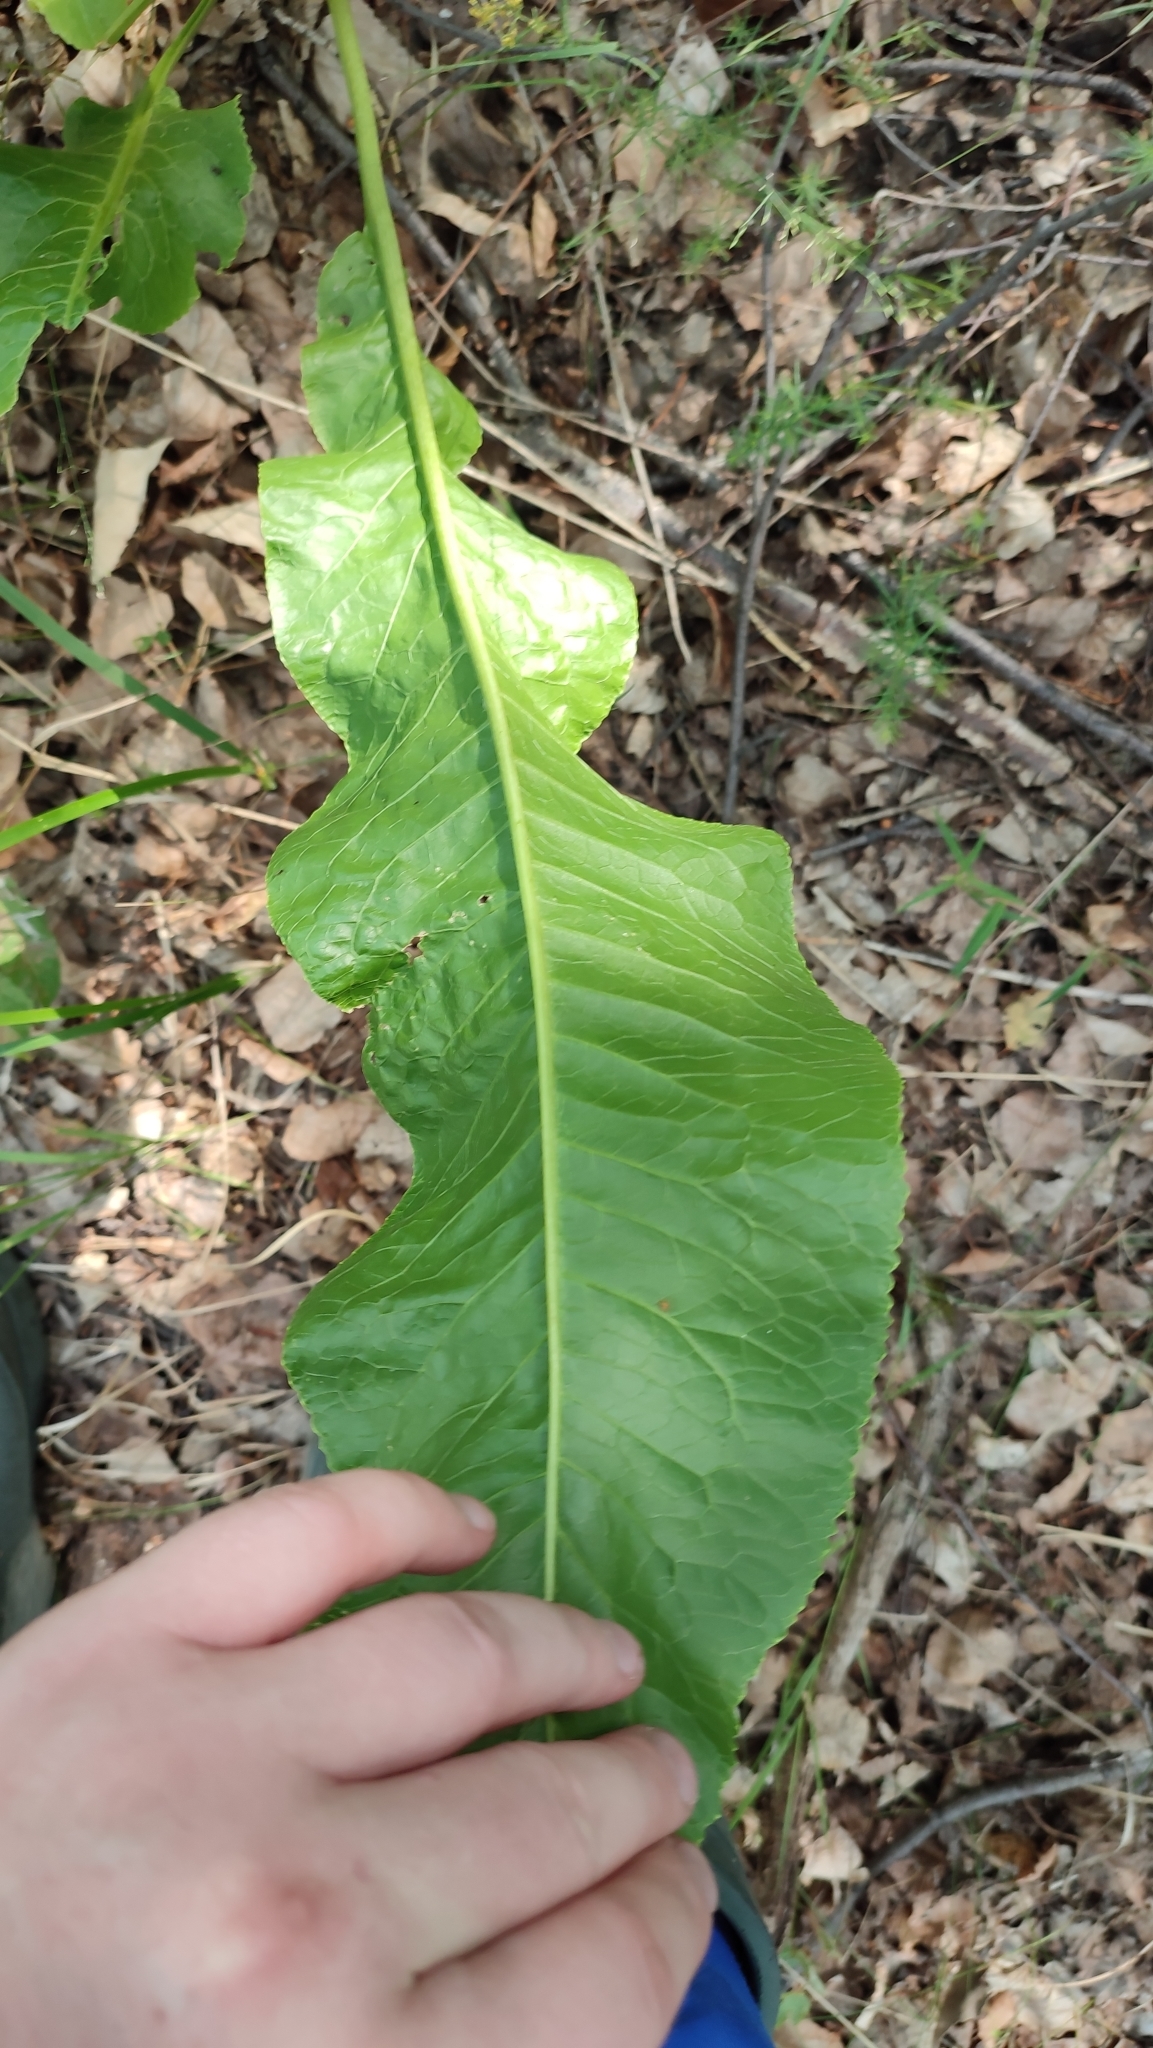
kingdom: Plantae
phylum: Tracheophyta
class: Magnoliopsida
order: Brassicales
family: Brassicaceae
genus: Armoracia
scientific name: Armoracia rusticana
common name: Horseradish
